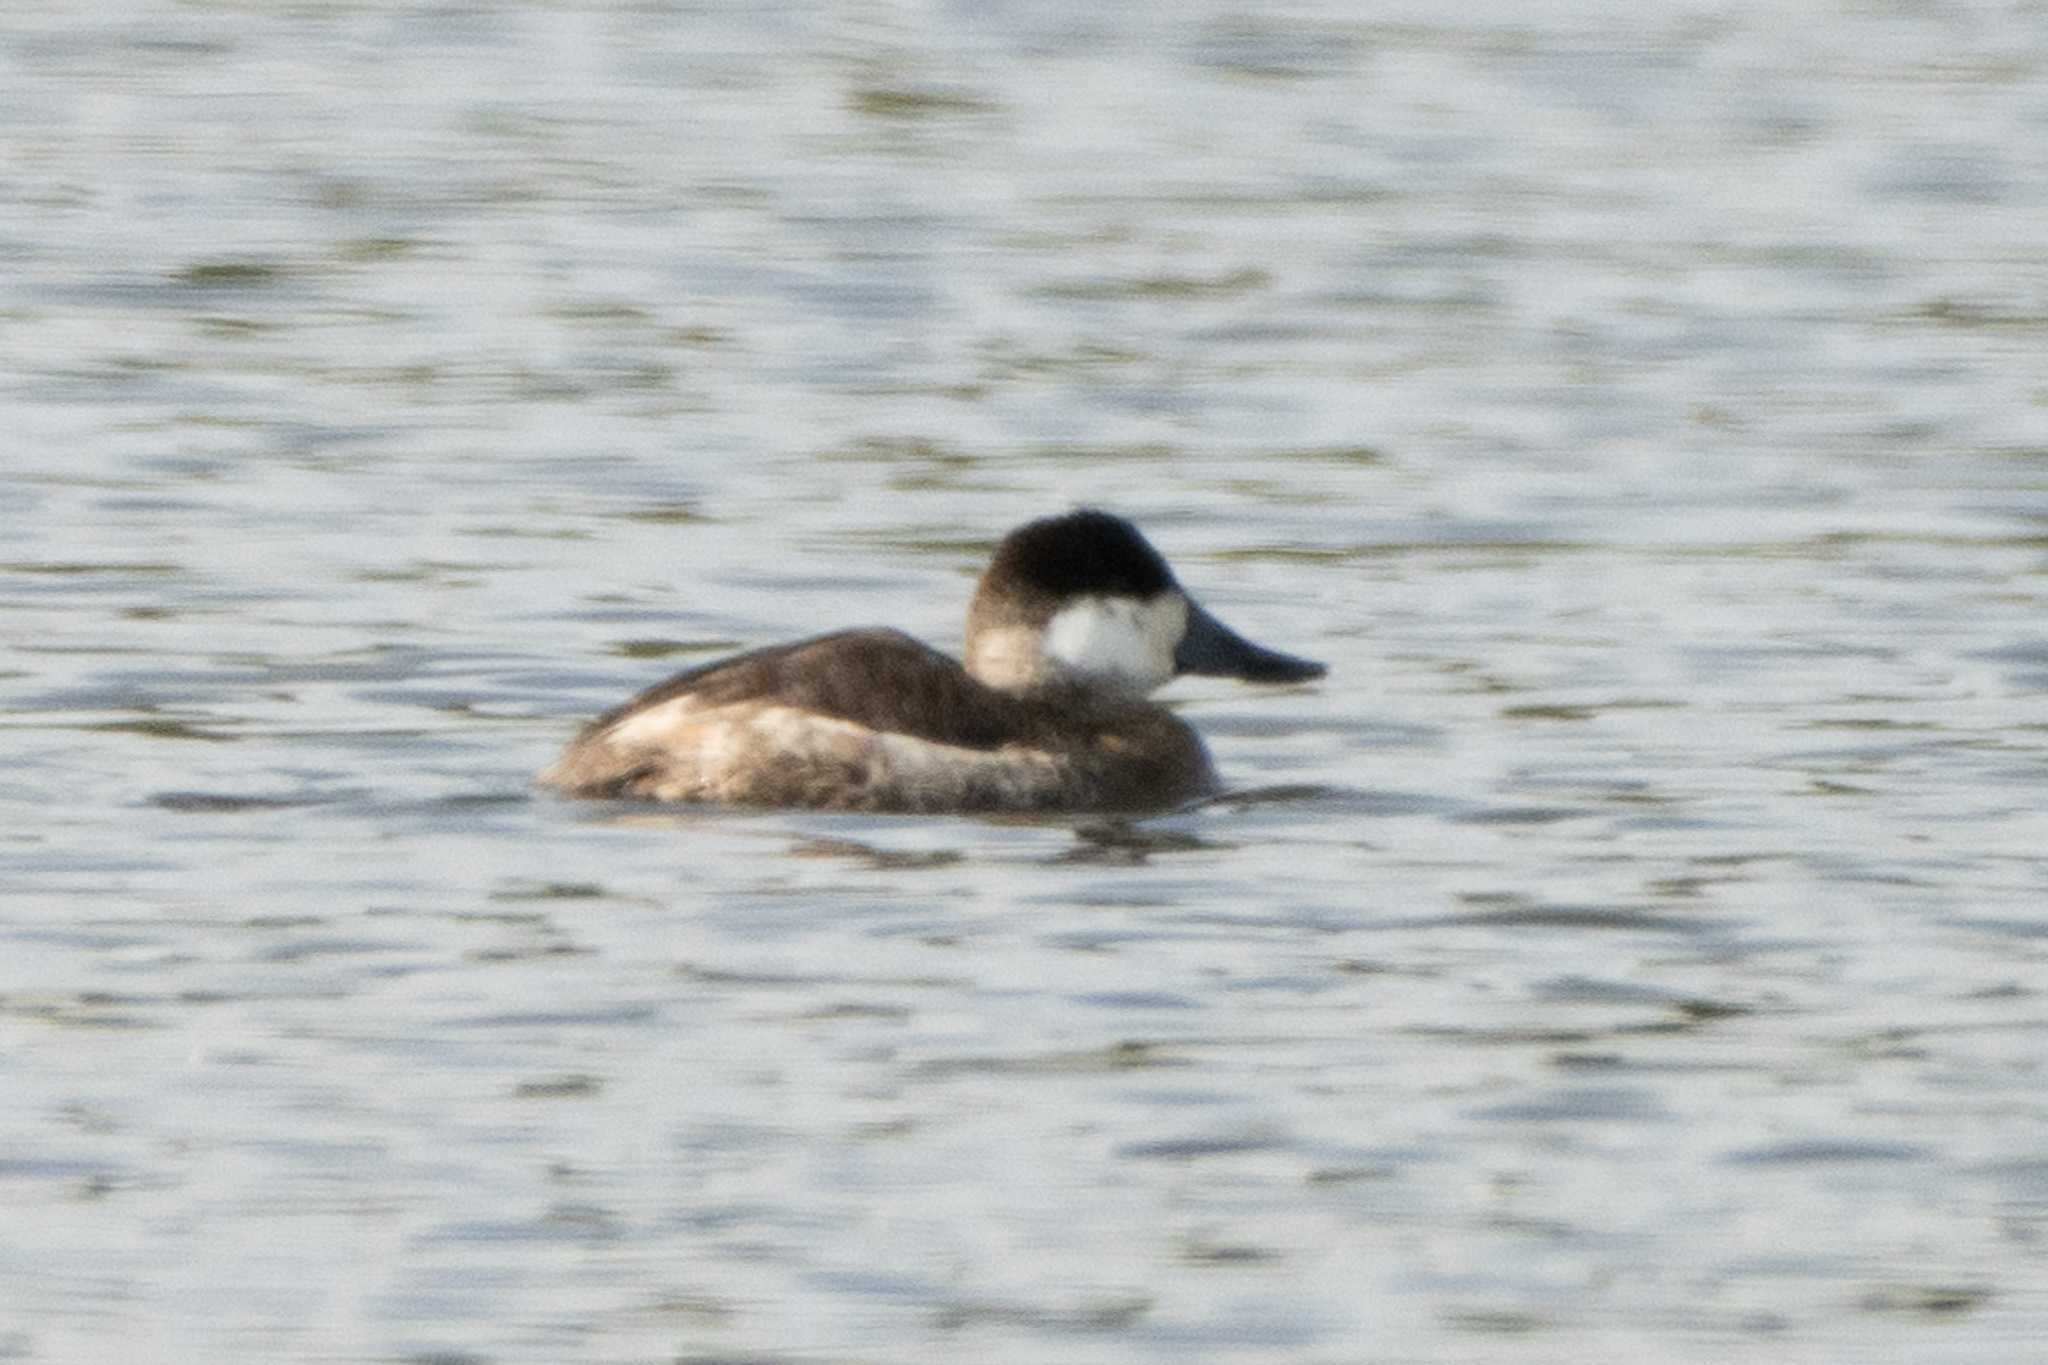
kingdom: Animalia
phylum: Chordata
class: Aves
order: Anseriformes
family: Anatidae
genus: Oxyura
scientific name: Oxyura jamaicensis
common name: Ruddy duck
